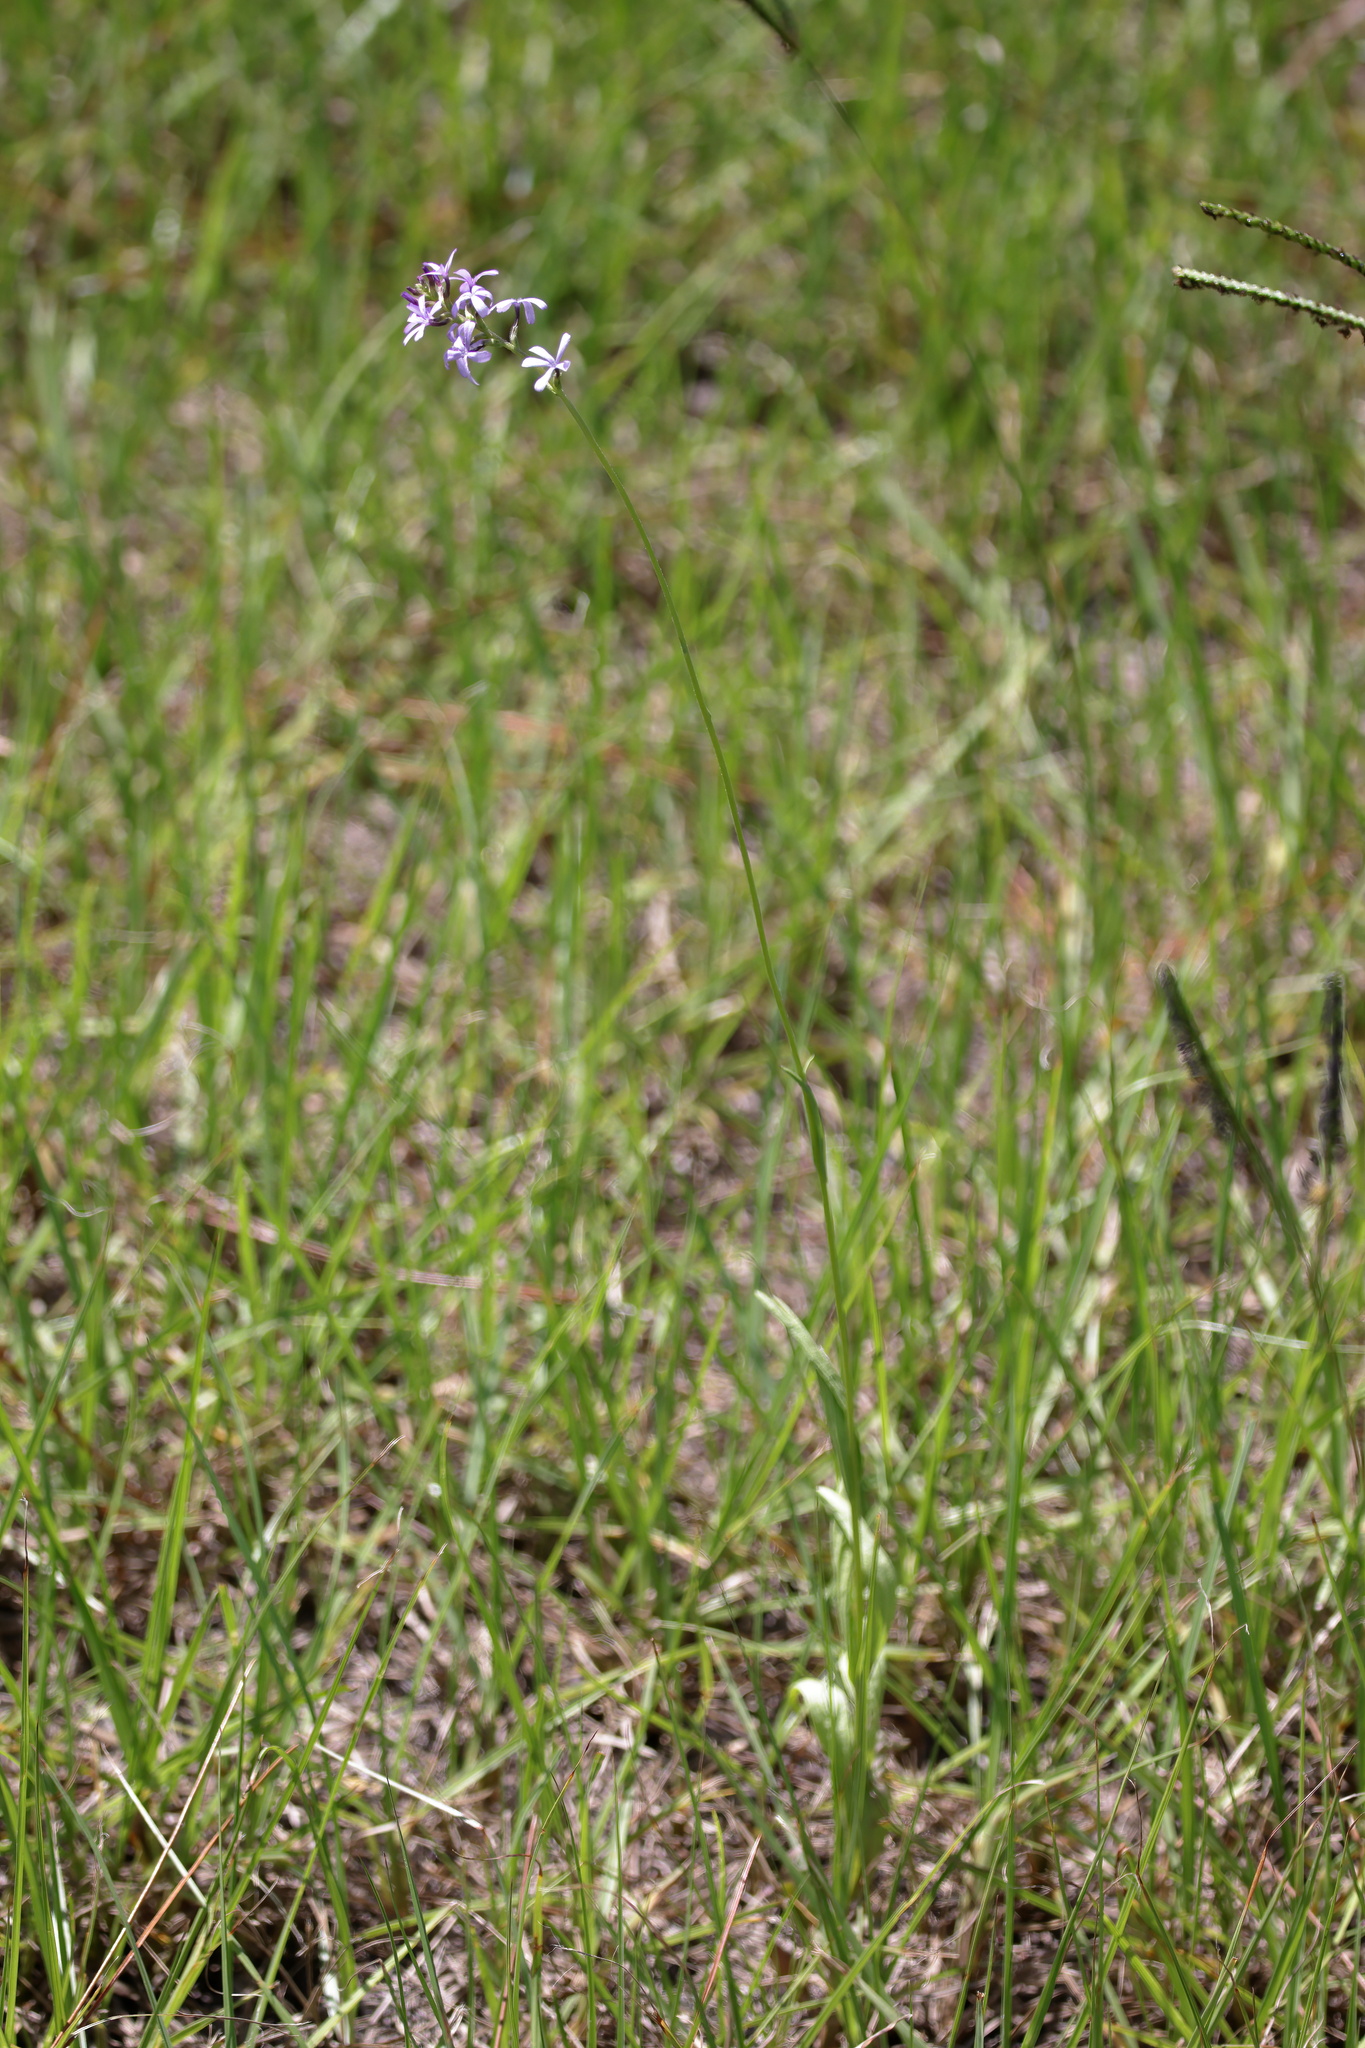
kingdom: Plantae
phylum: Tracheophyta
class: Magnoliopsida
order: Lamiales
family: Orobanchaceae
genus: Buchnera
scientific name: Buchnera floridana
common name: Florida bluehearts
